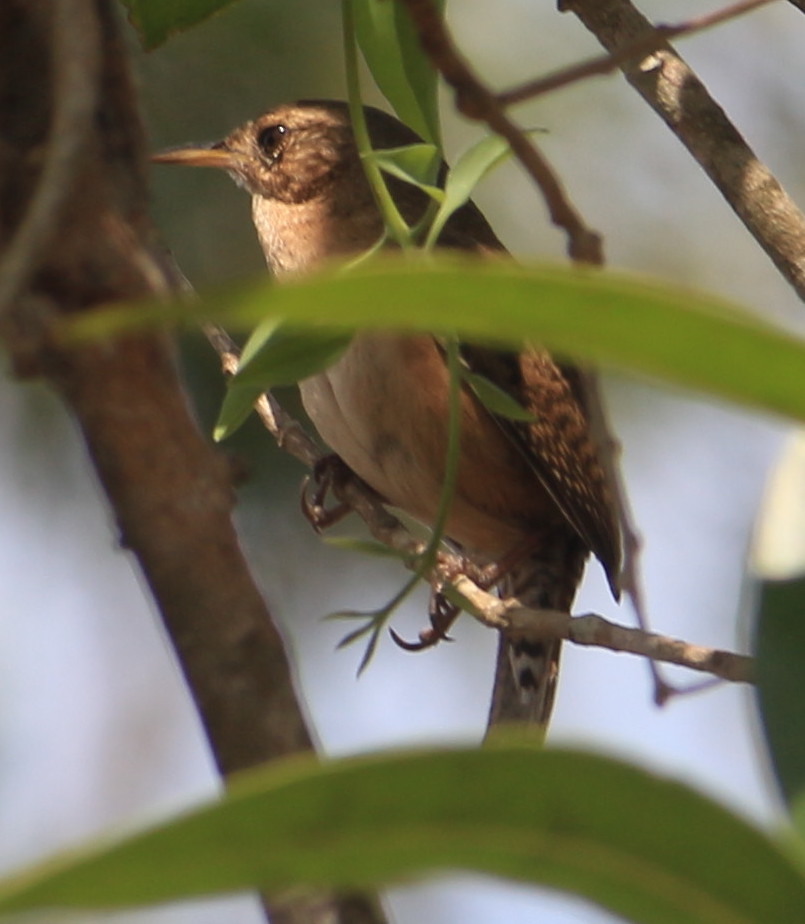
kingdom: Animalia
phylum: Chordata
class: Aves
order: Passeriformes
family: Troglodytidae
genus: Troglodytes
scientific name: Troglodytes aedon
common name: House wren
